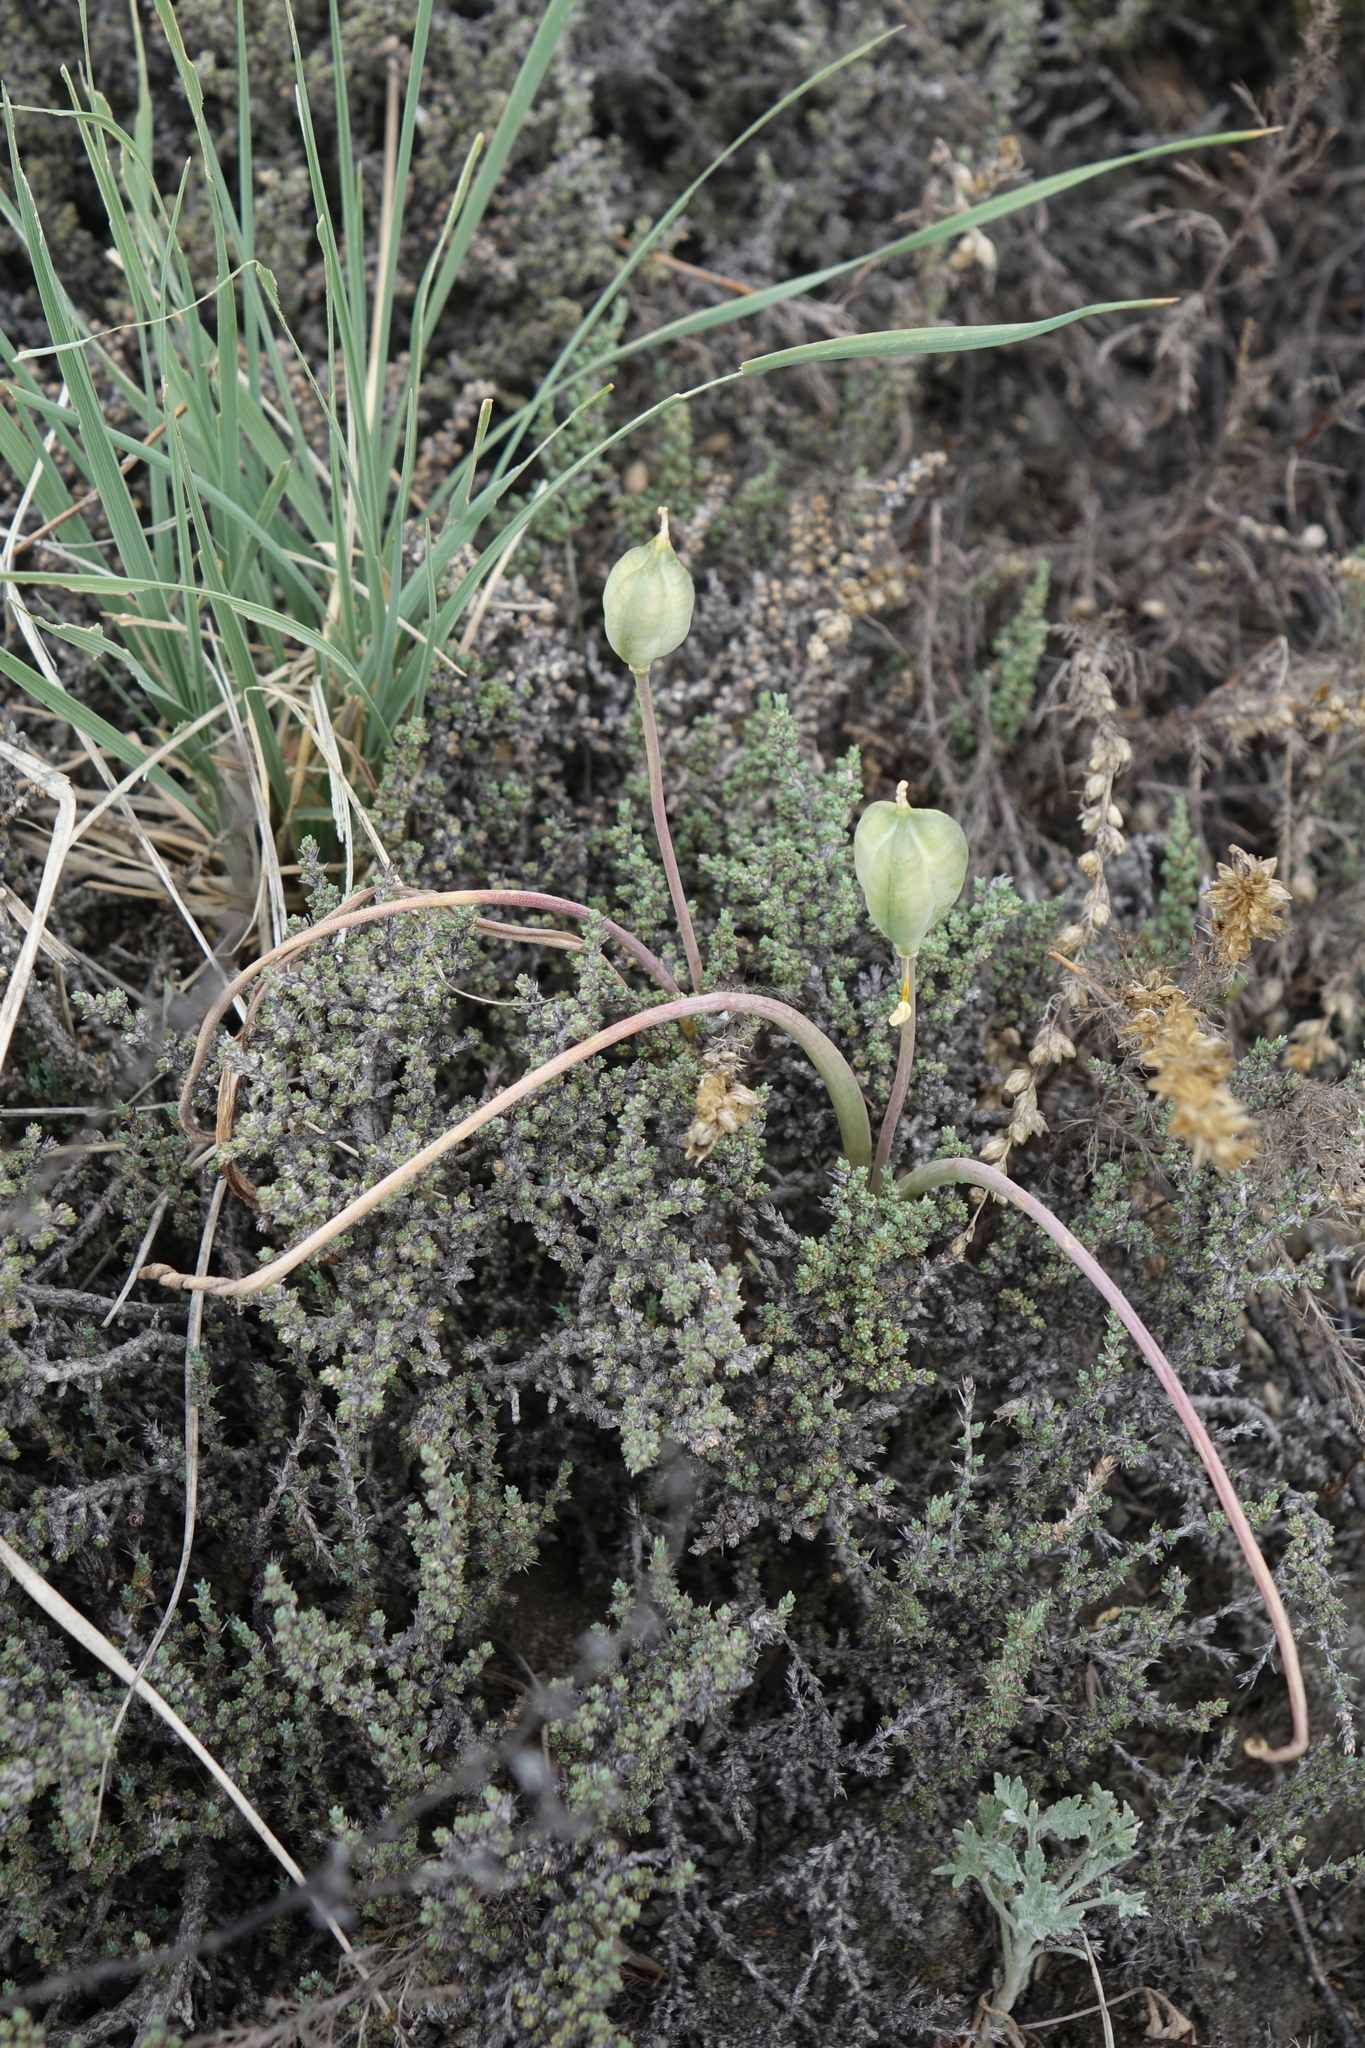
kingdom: Plantae
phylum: Tracheophyta
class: Liliopsida
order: Liliales
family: Liliaceae
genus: Tulipa
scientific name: Tulipa uniflora
